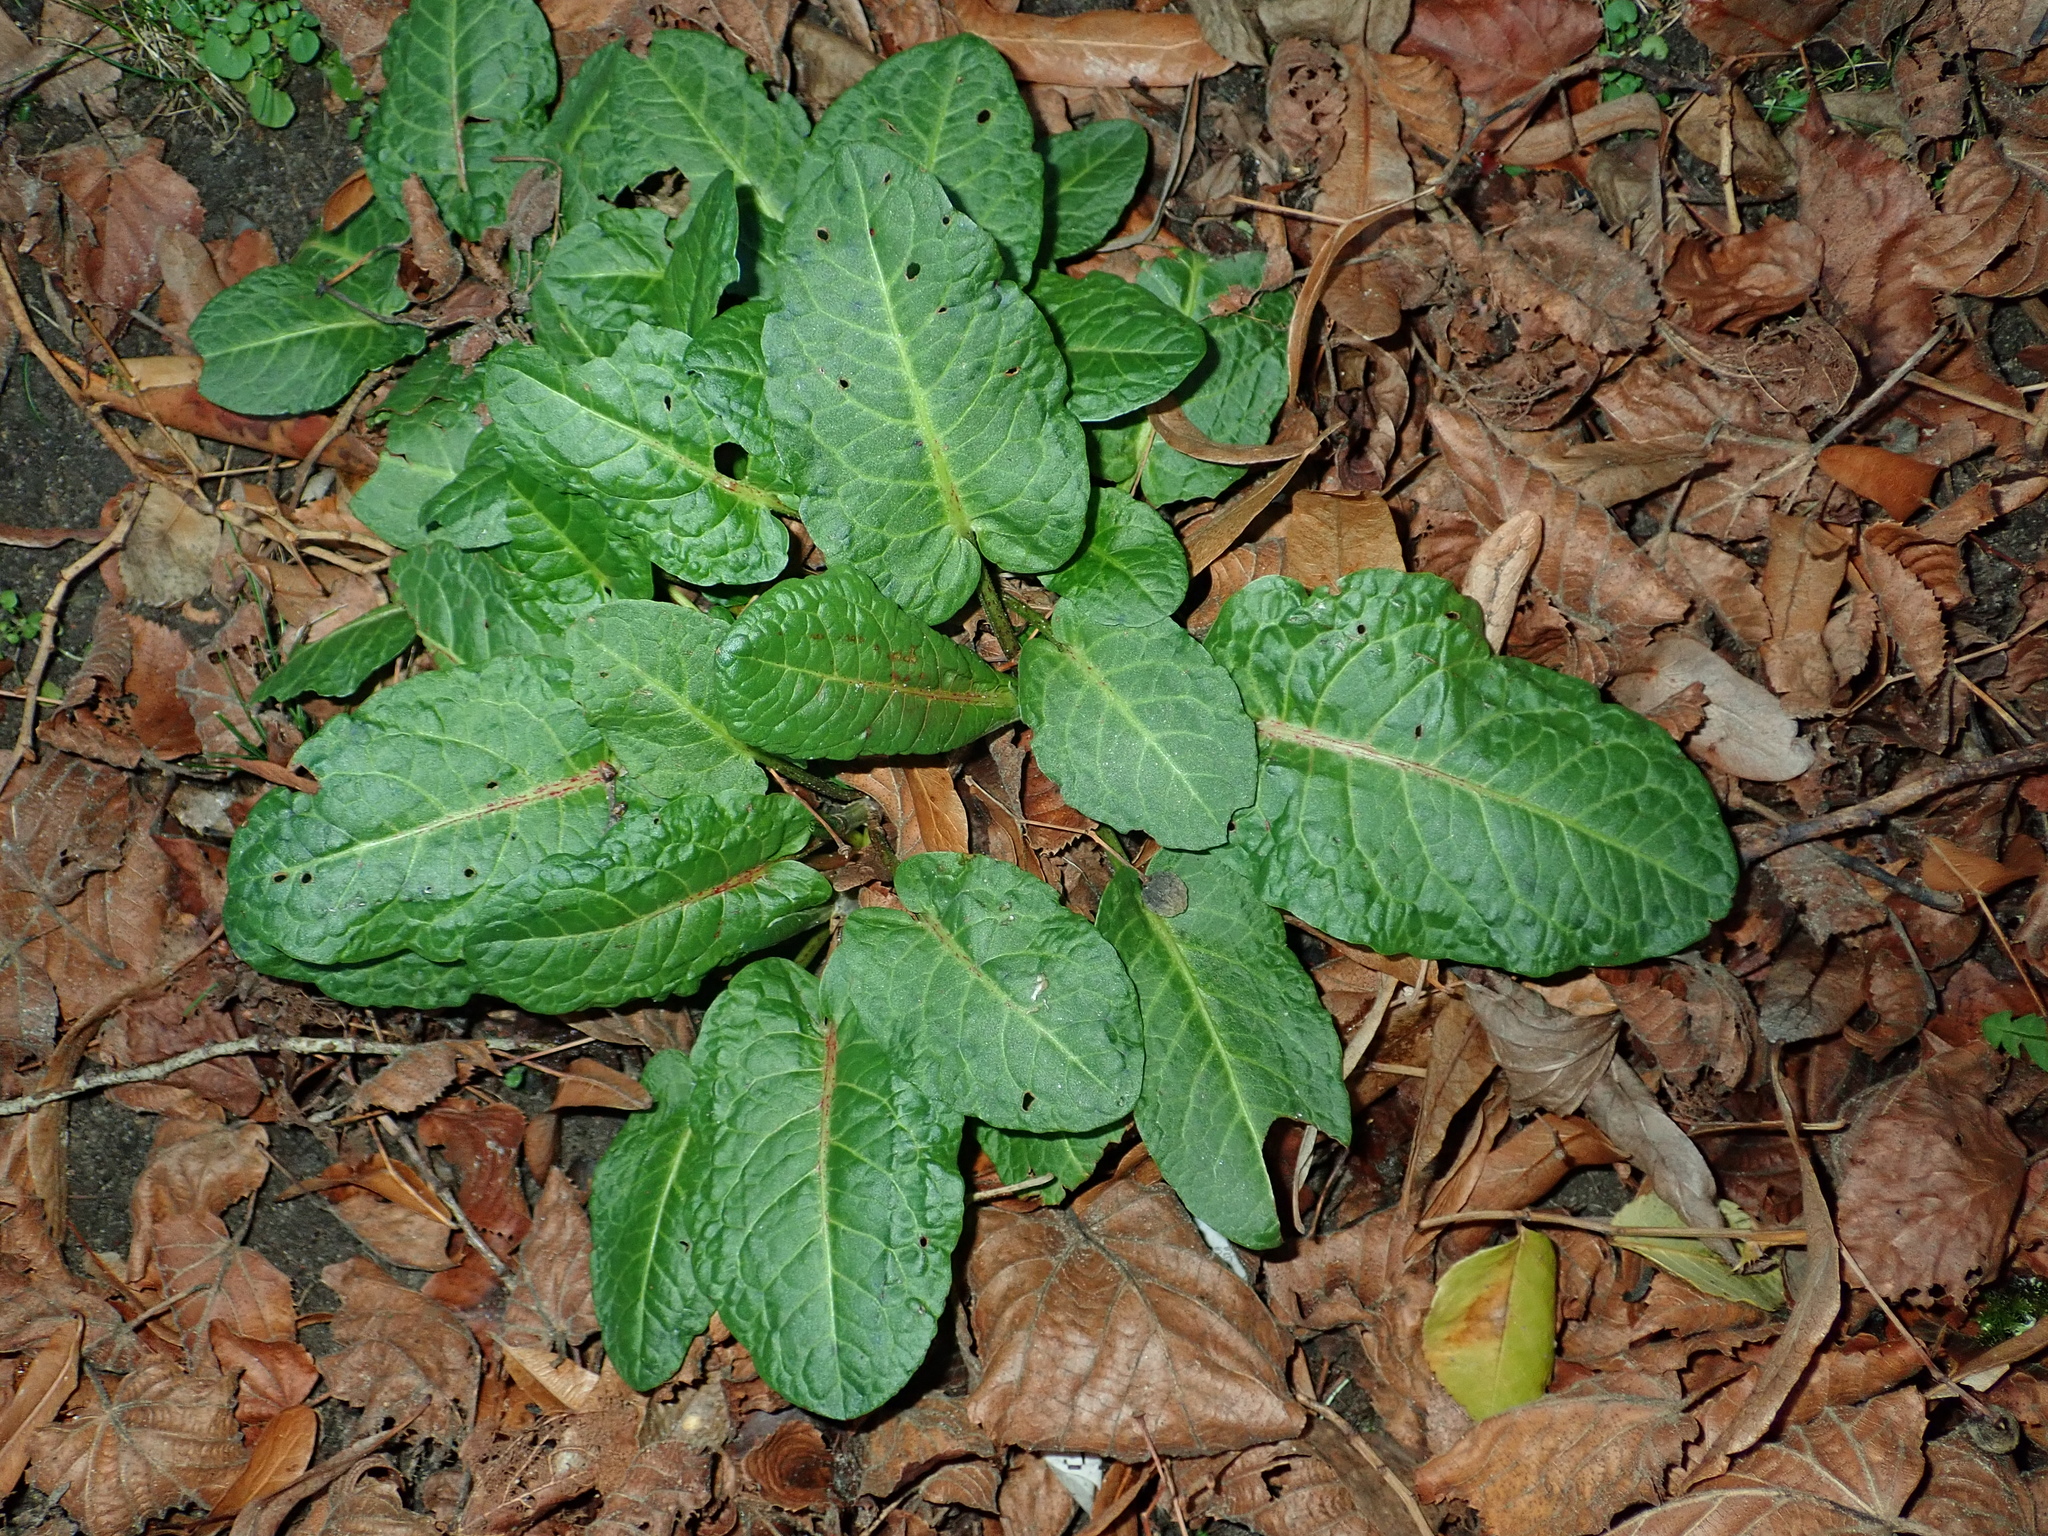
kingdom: Plantae
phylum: Tracheophyta
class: Magnoliopsida
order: Caryophyllales
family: Polygonaceae
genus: Rumex
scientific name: Rumex obtusifolius
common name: Bitter dock
